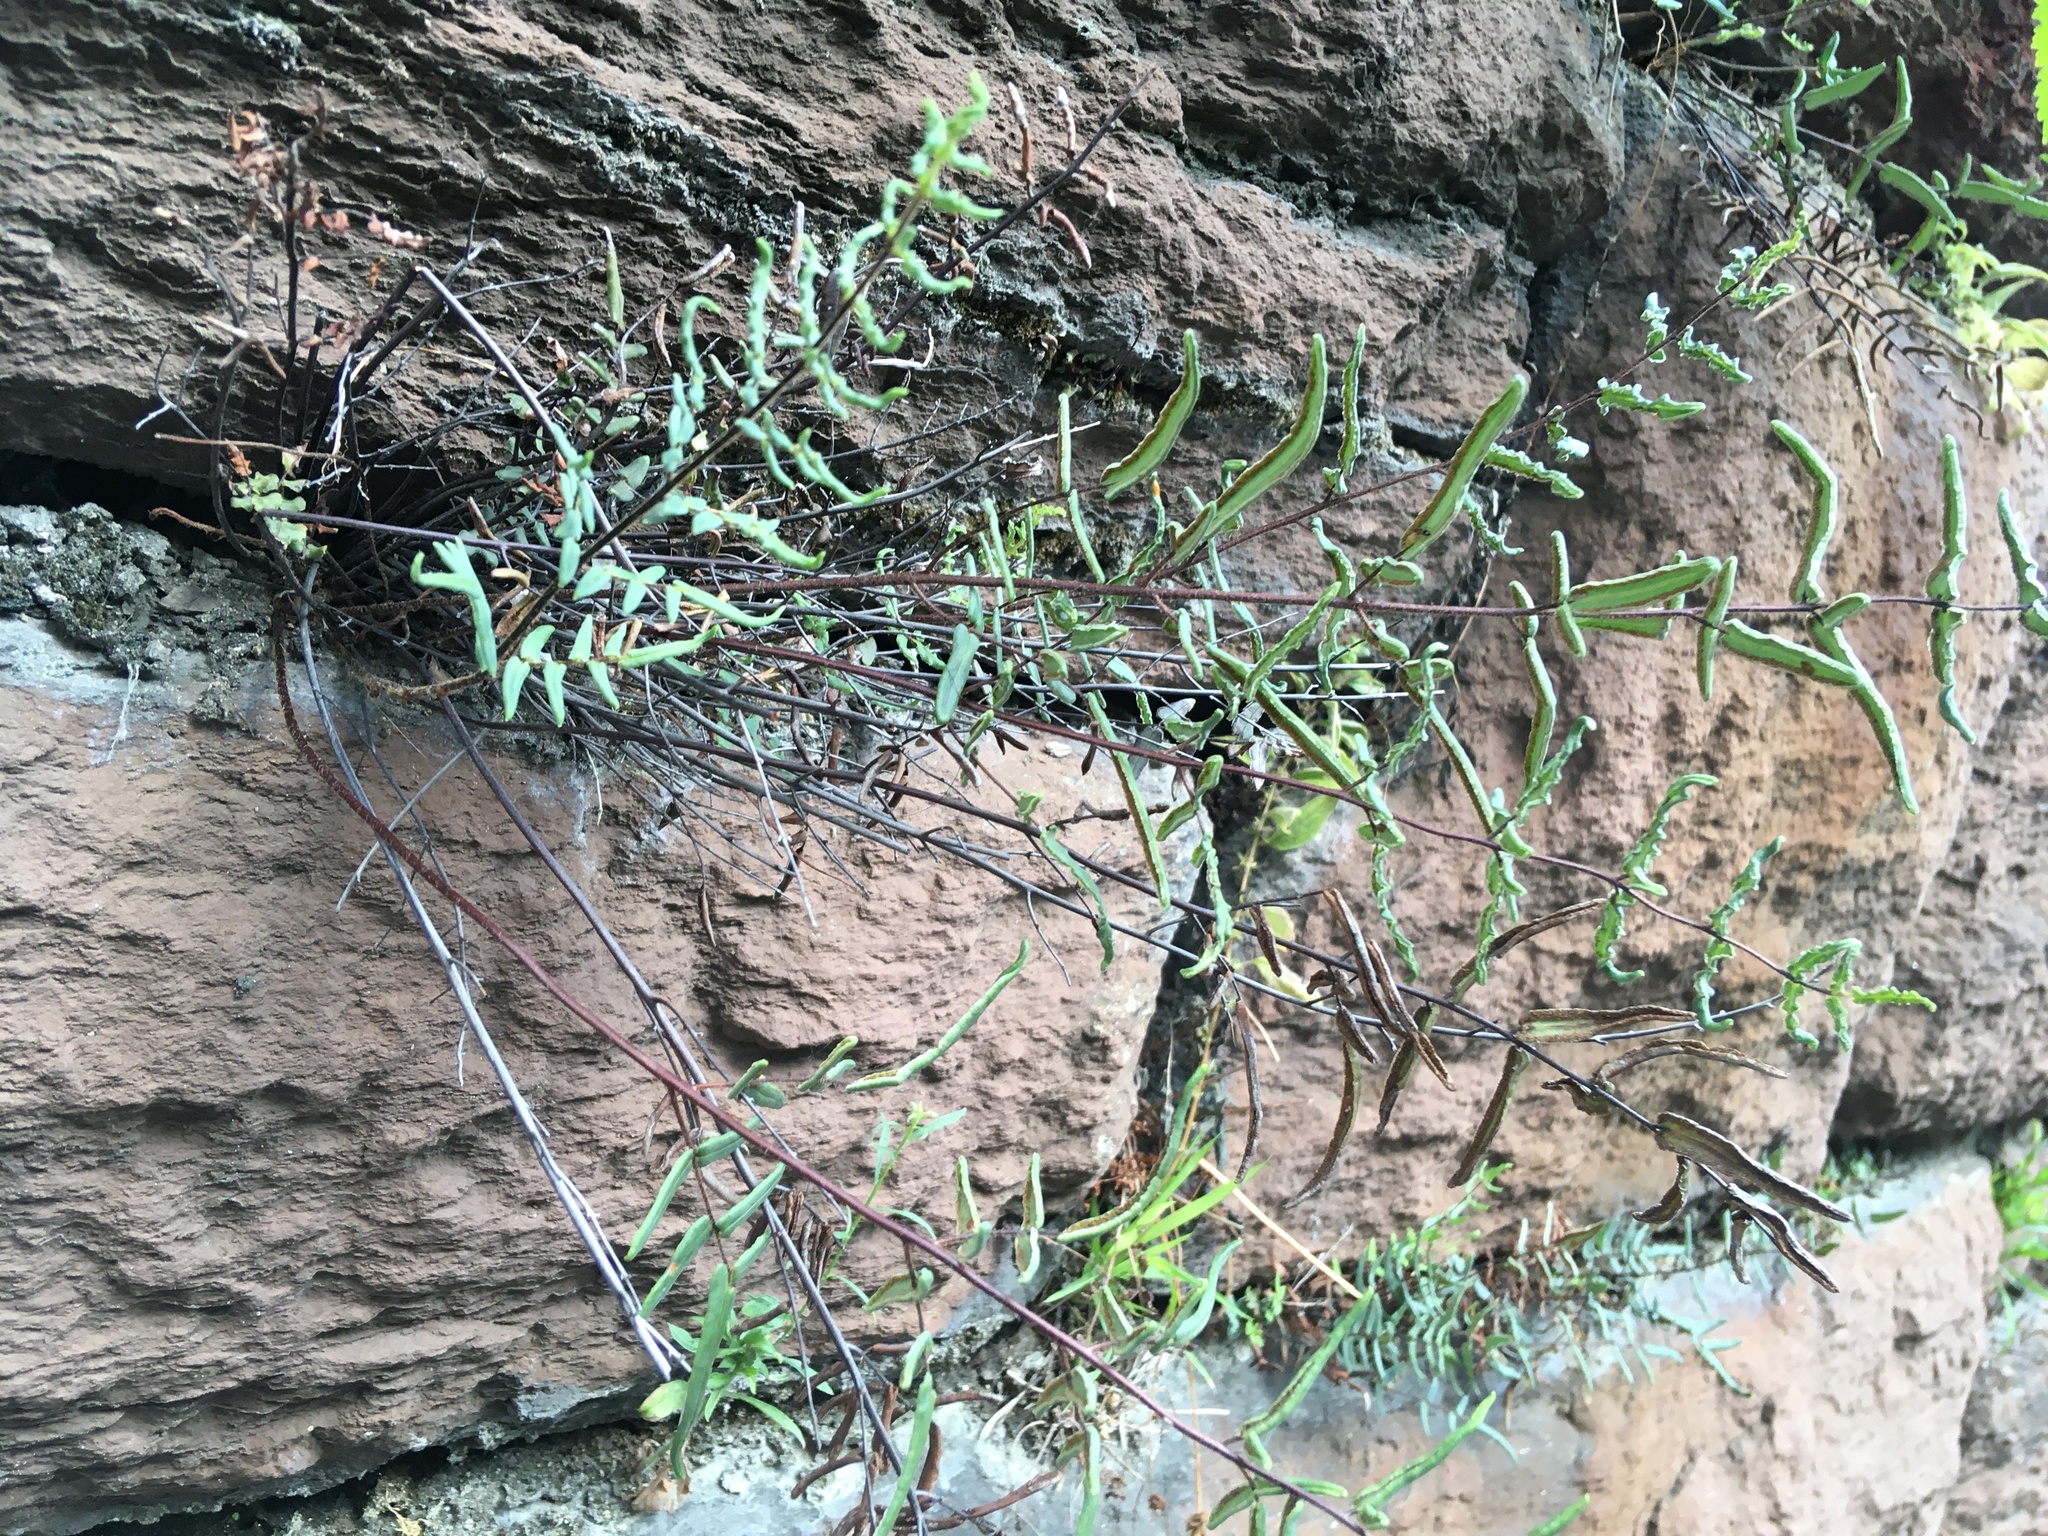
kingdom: Plantae
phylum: Tracheophyta
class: Polypodiopsida
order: Polypodiales
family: Pteridaceae
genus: Pellaea
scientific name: Pellaea atropurpurea
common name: Hairy cliffbrake
